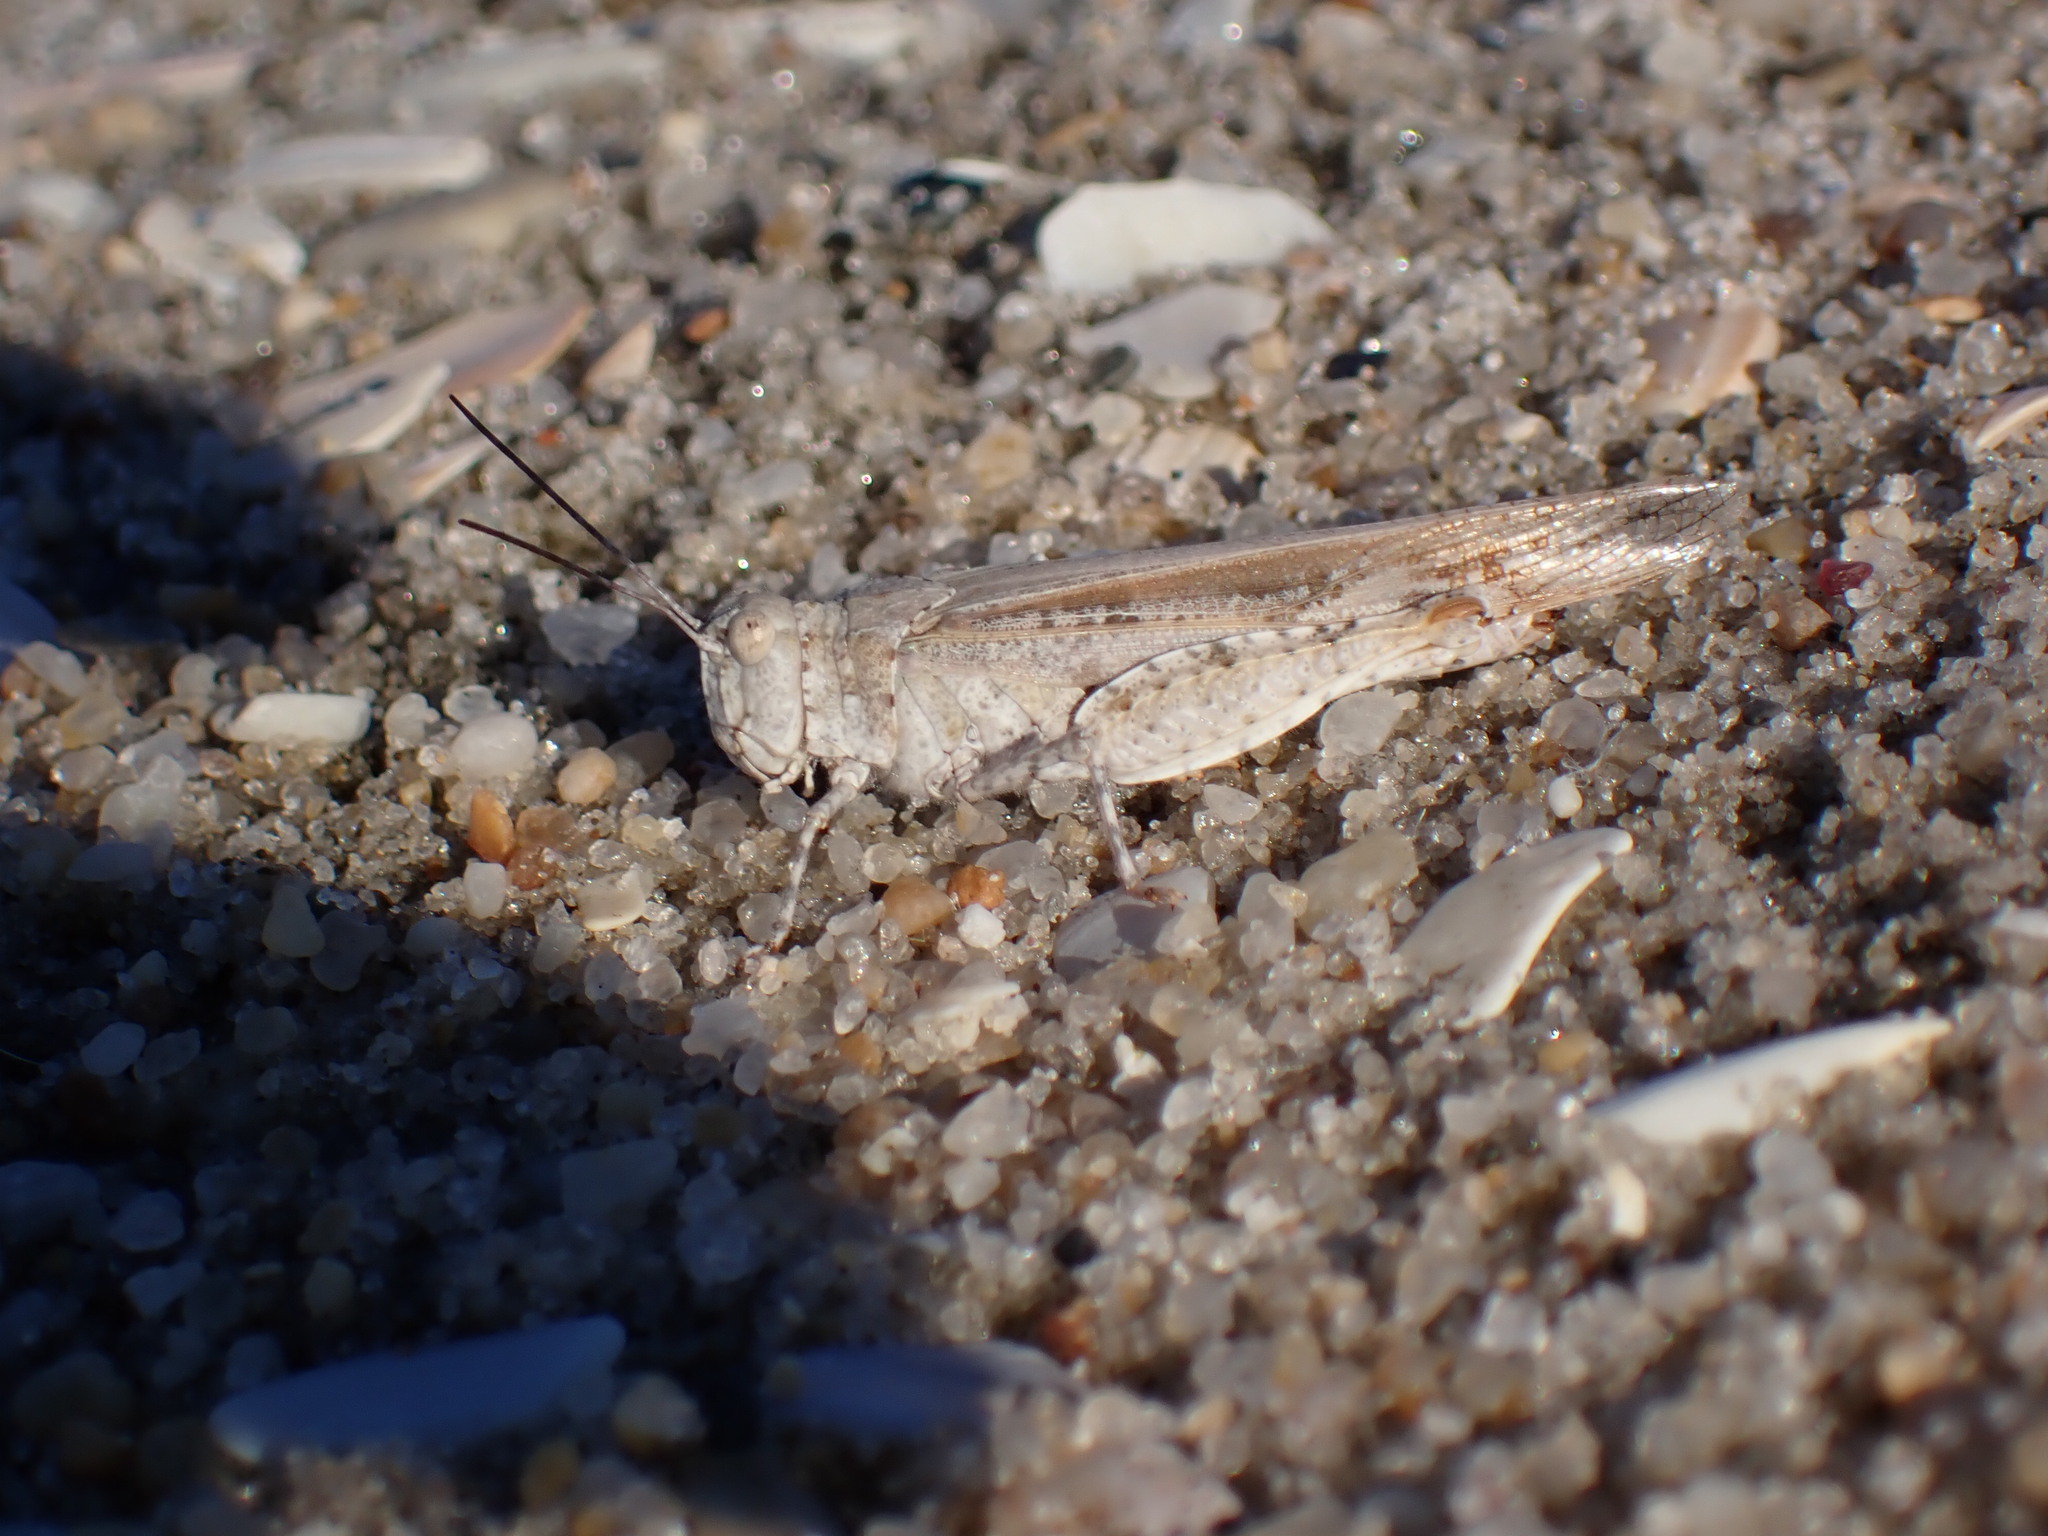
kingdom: Animalia
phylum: Arthropoda
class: Insecta
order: Orthoptera
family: Acrididae
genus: Trimerotropis
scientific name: Trimerotropis maritima
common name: Seaside locust
